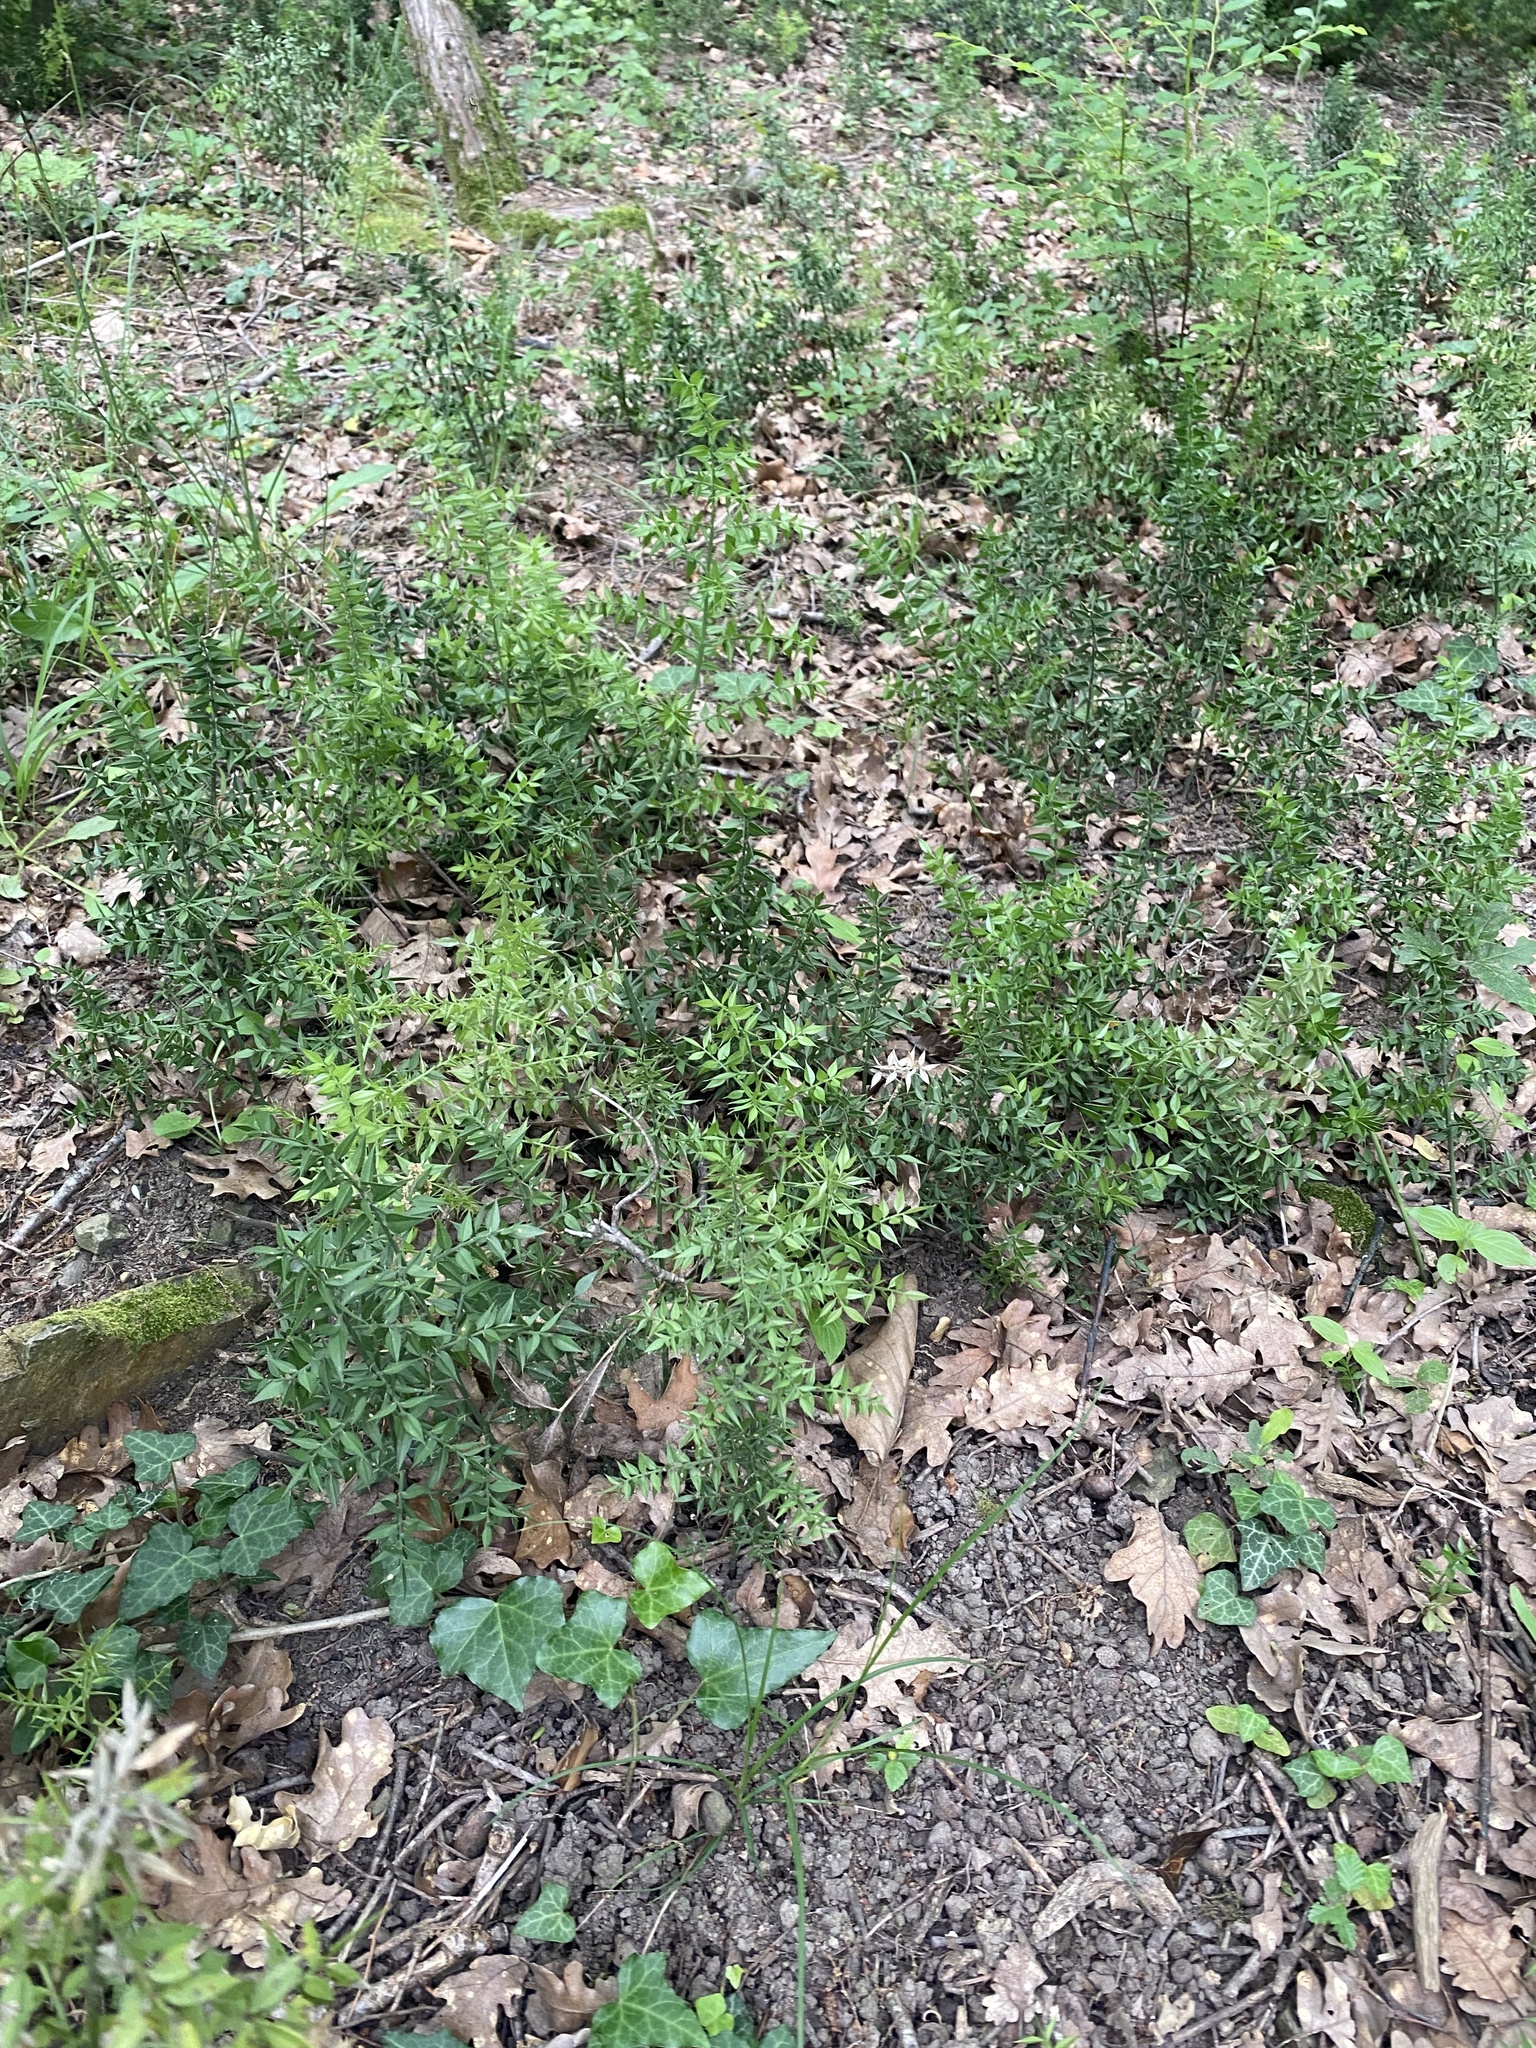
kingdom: Plantae
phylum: Tracheophyta
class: Liliopsida
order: Asparagales
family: Asparagaceae
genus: Ruscus
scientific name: Ruscus aculeatus
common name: Butcher's-broom
